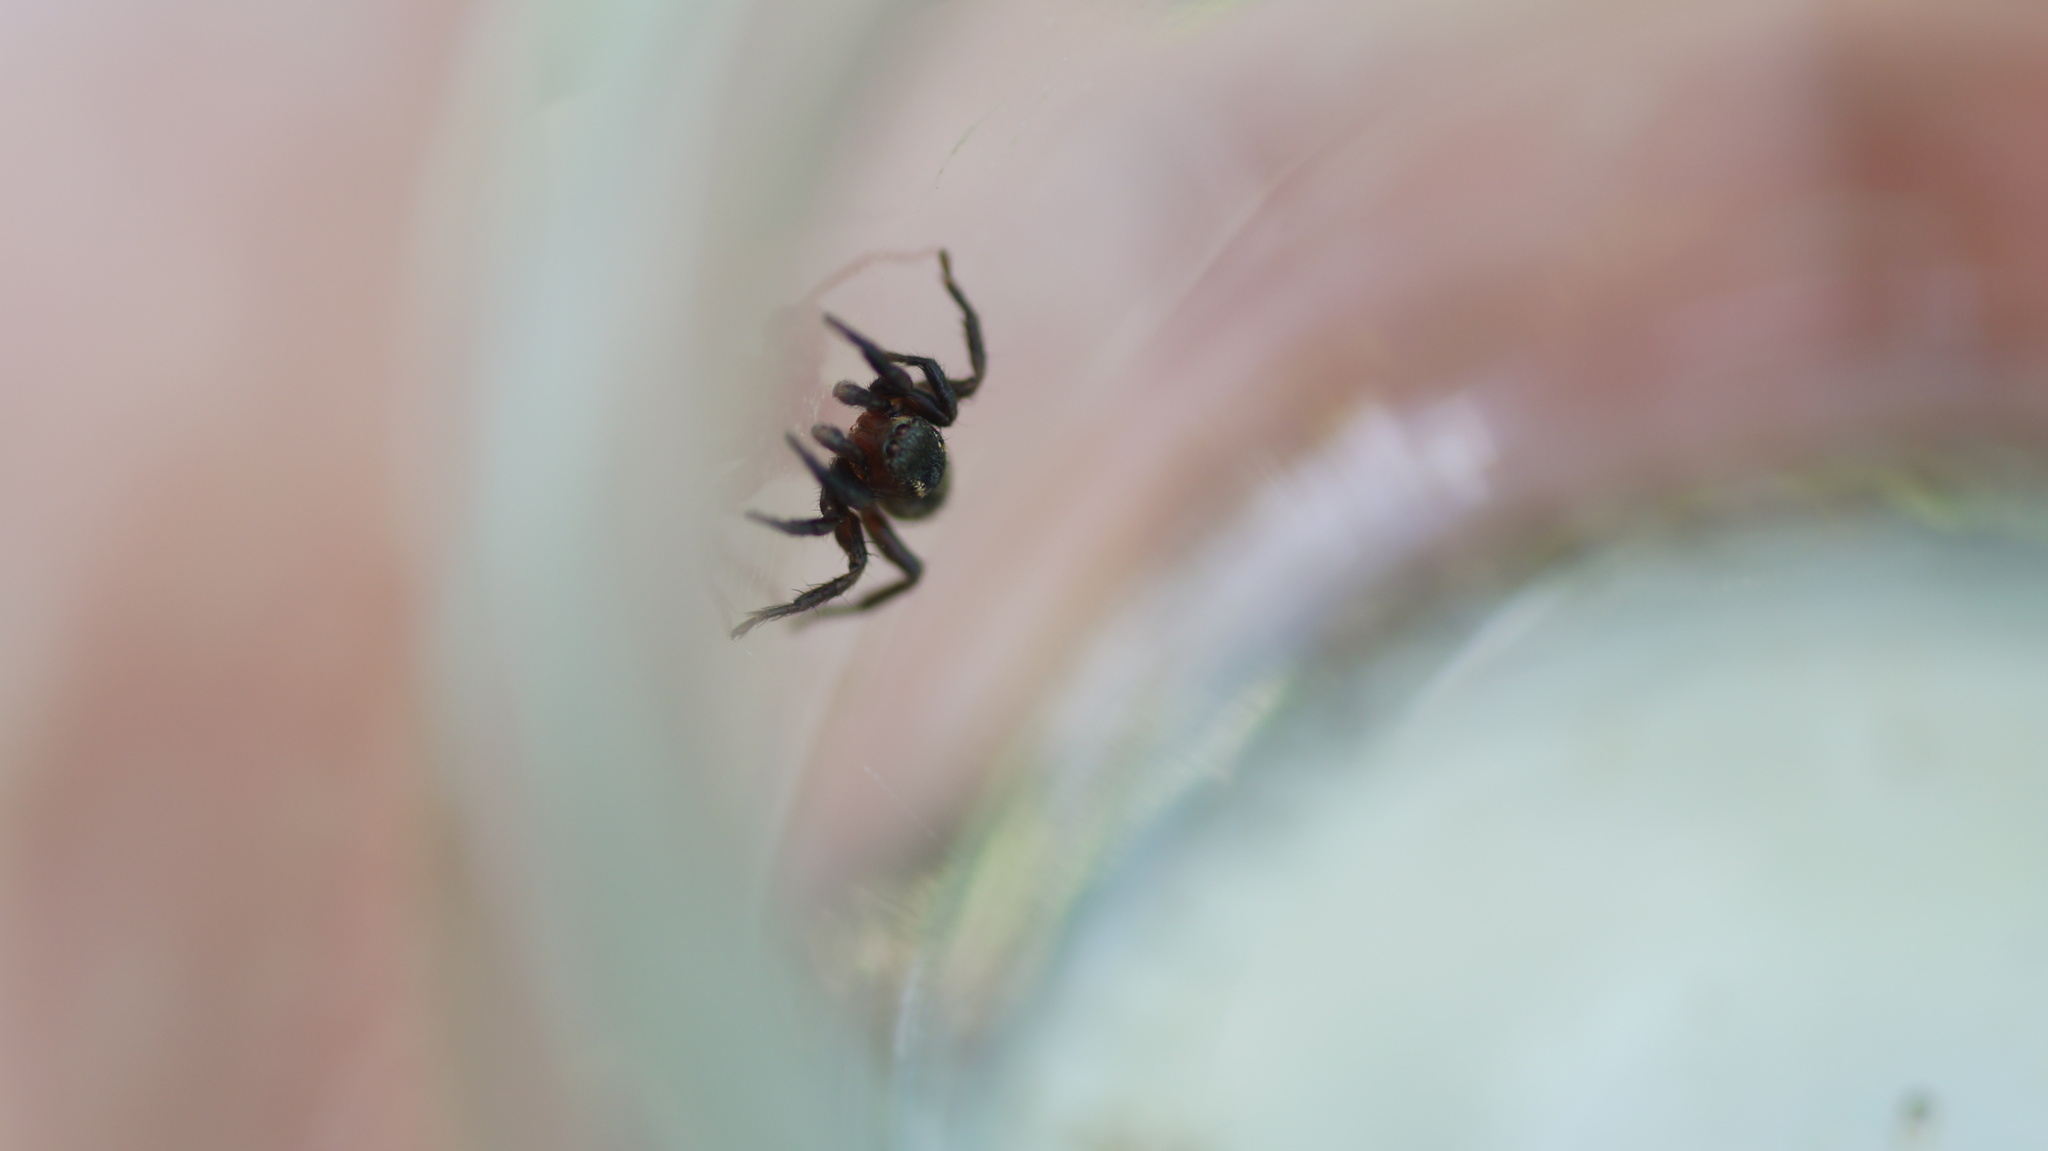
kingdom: Animalia
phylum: Arthropoda
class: Arachnida
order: Araneae
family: Salticidae
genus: Phlegra
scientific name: Phlegra fasciata
